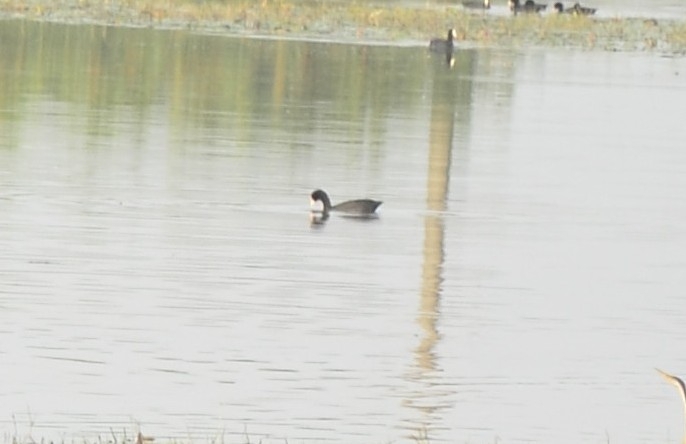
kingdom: Animalia
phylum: Chordata
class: Aves
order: Gruiformes
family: Rallidae
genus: Fulica
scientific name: Fulica atra
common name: Eurasian coot
